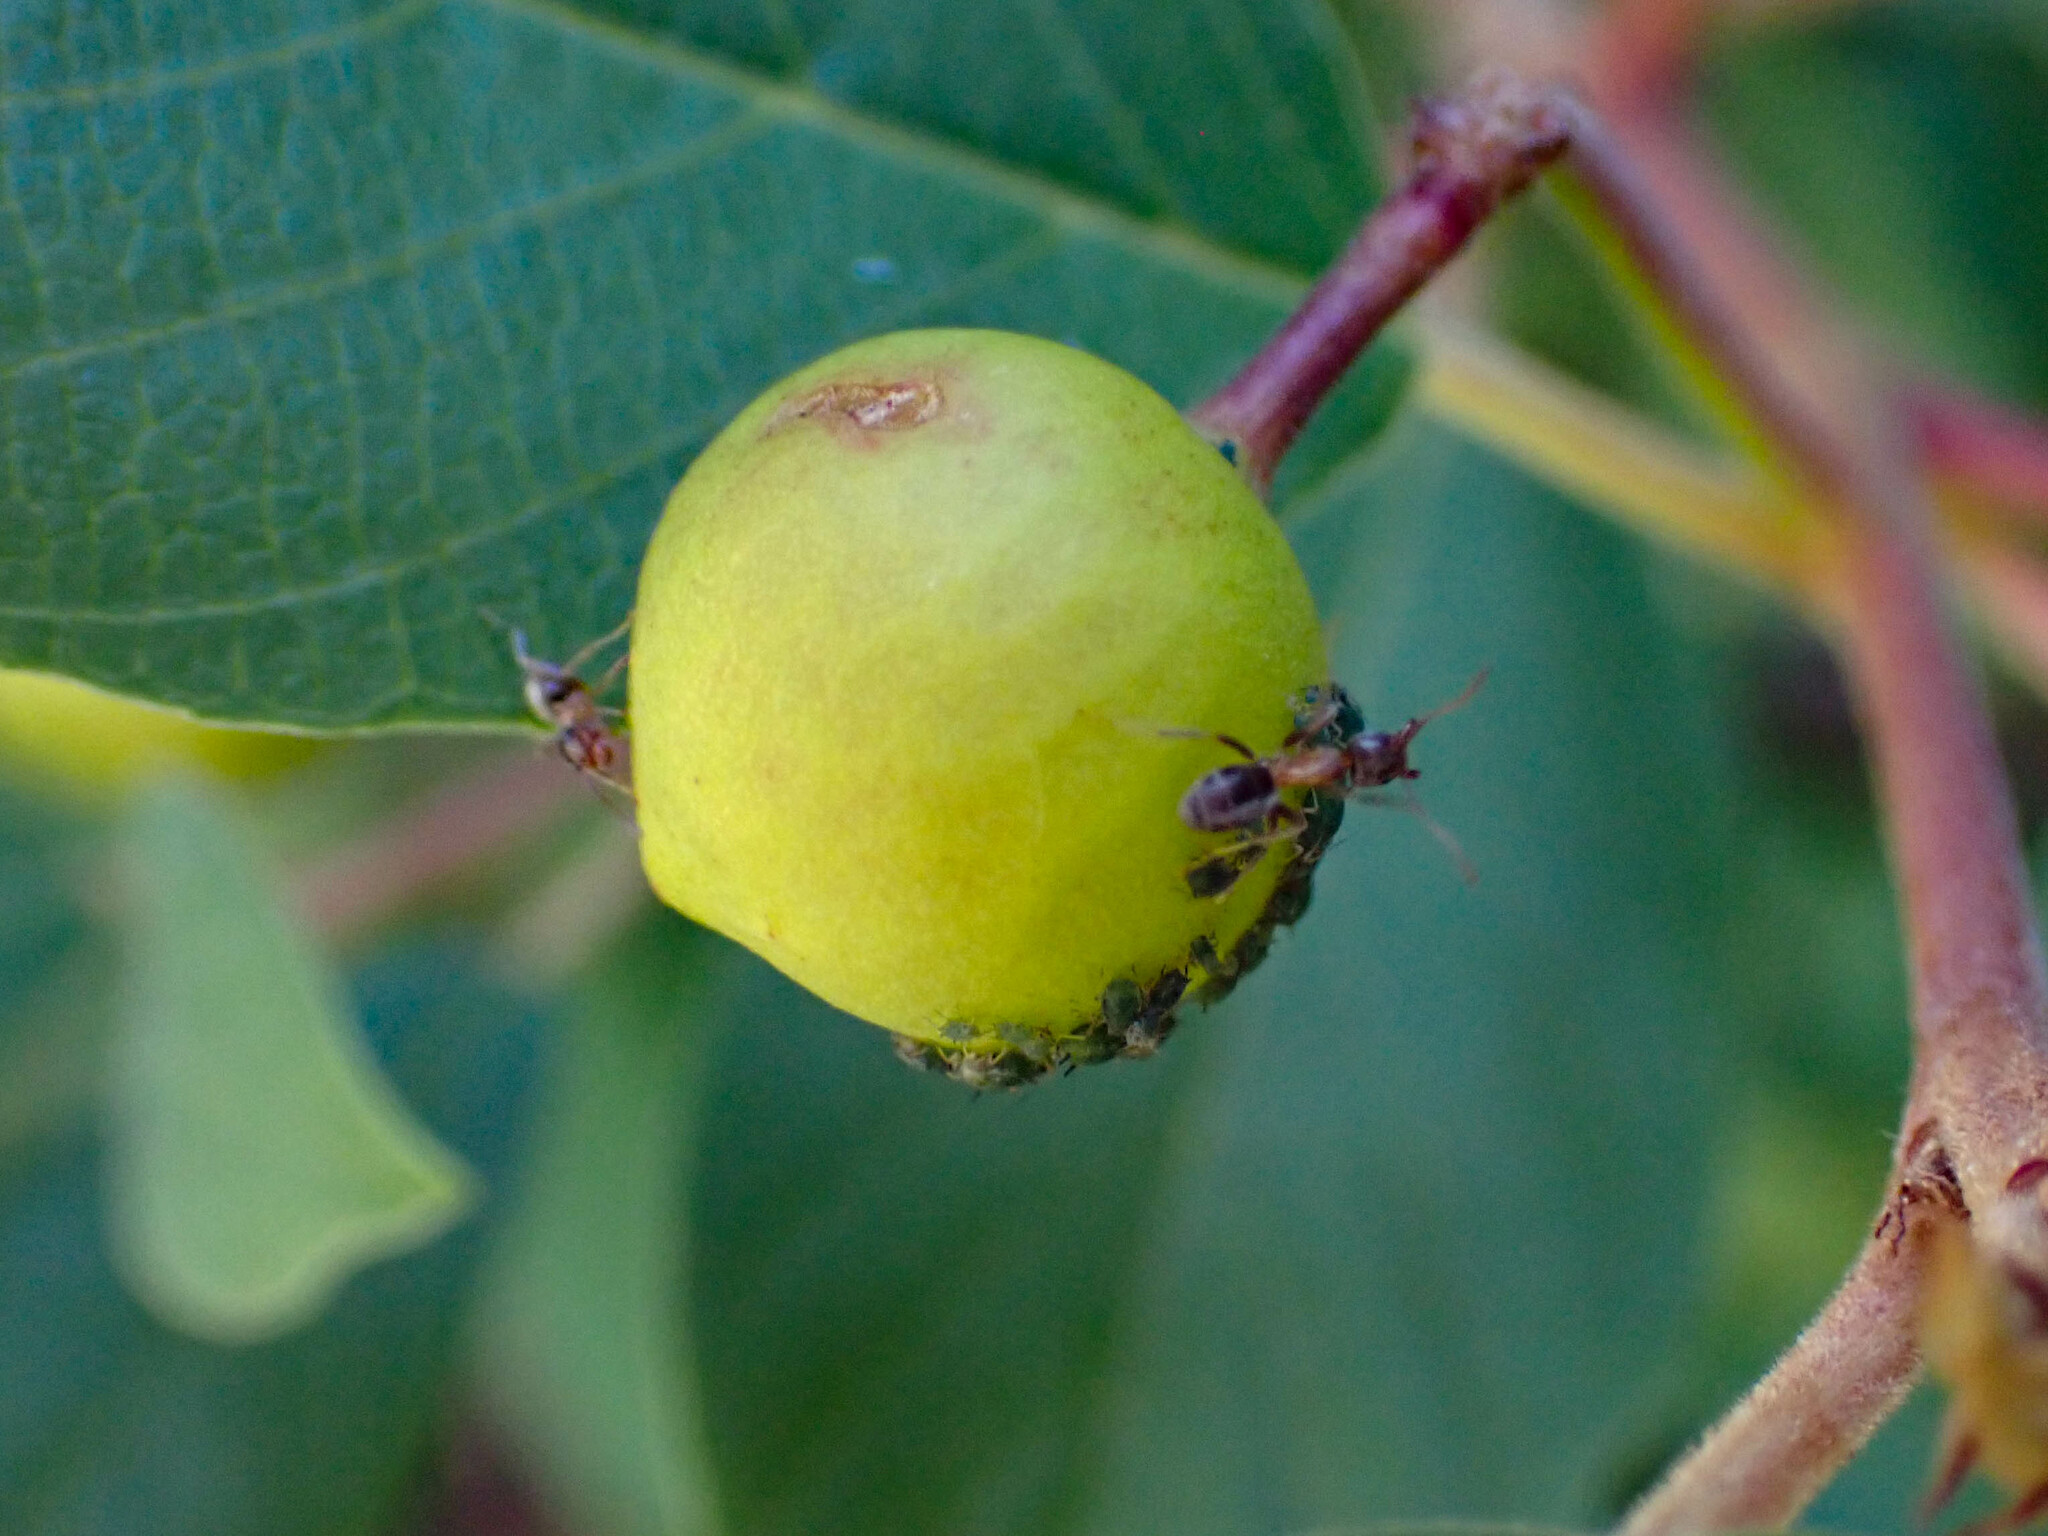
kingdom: Plantae
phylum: Tracheophyta
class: Magnoliopsida
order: Rosales
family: Rhamnaceae
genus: Frangula
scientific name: Frangula californica
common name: California buckthorn
